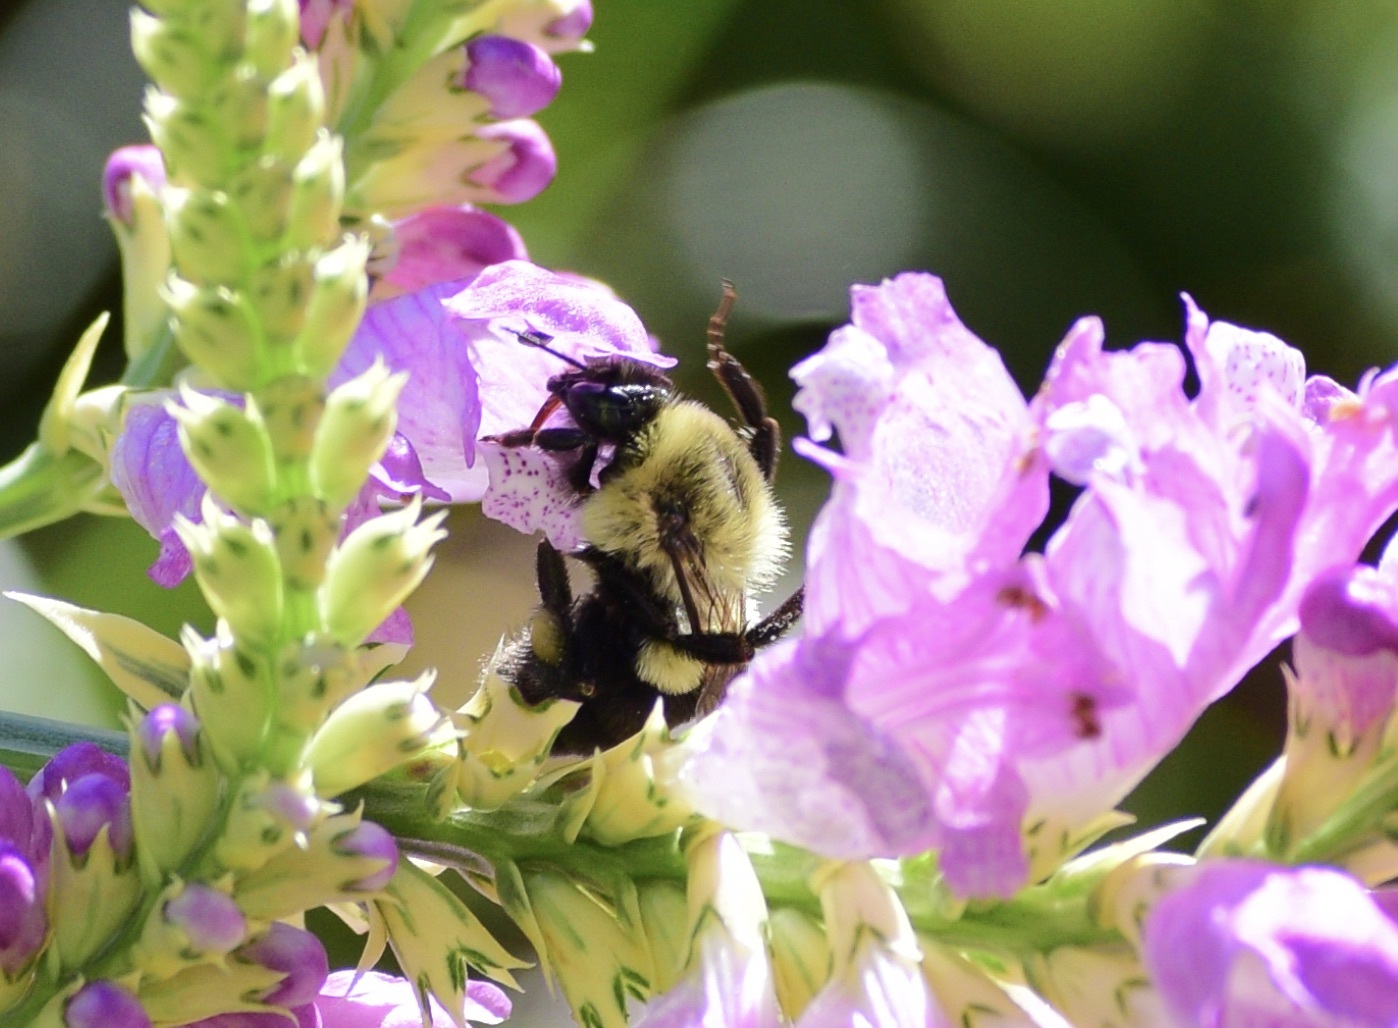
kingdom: Animalia
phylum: Arthropoda
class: Insecta
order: Hymenoptera
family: Apidae
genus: Bombus
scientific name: Bombus impatiens
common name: Common eastern bumble bee
